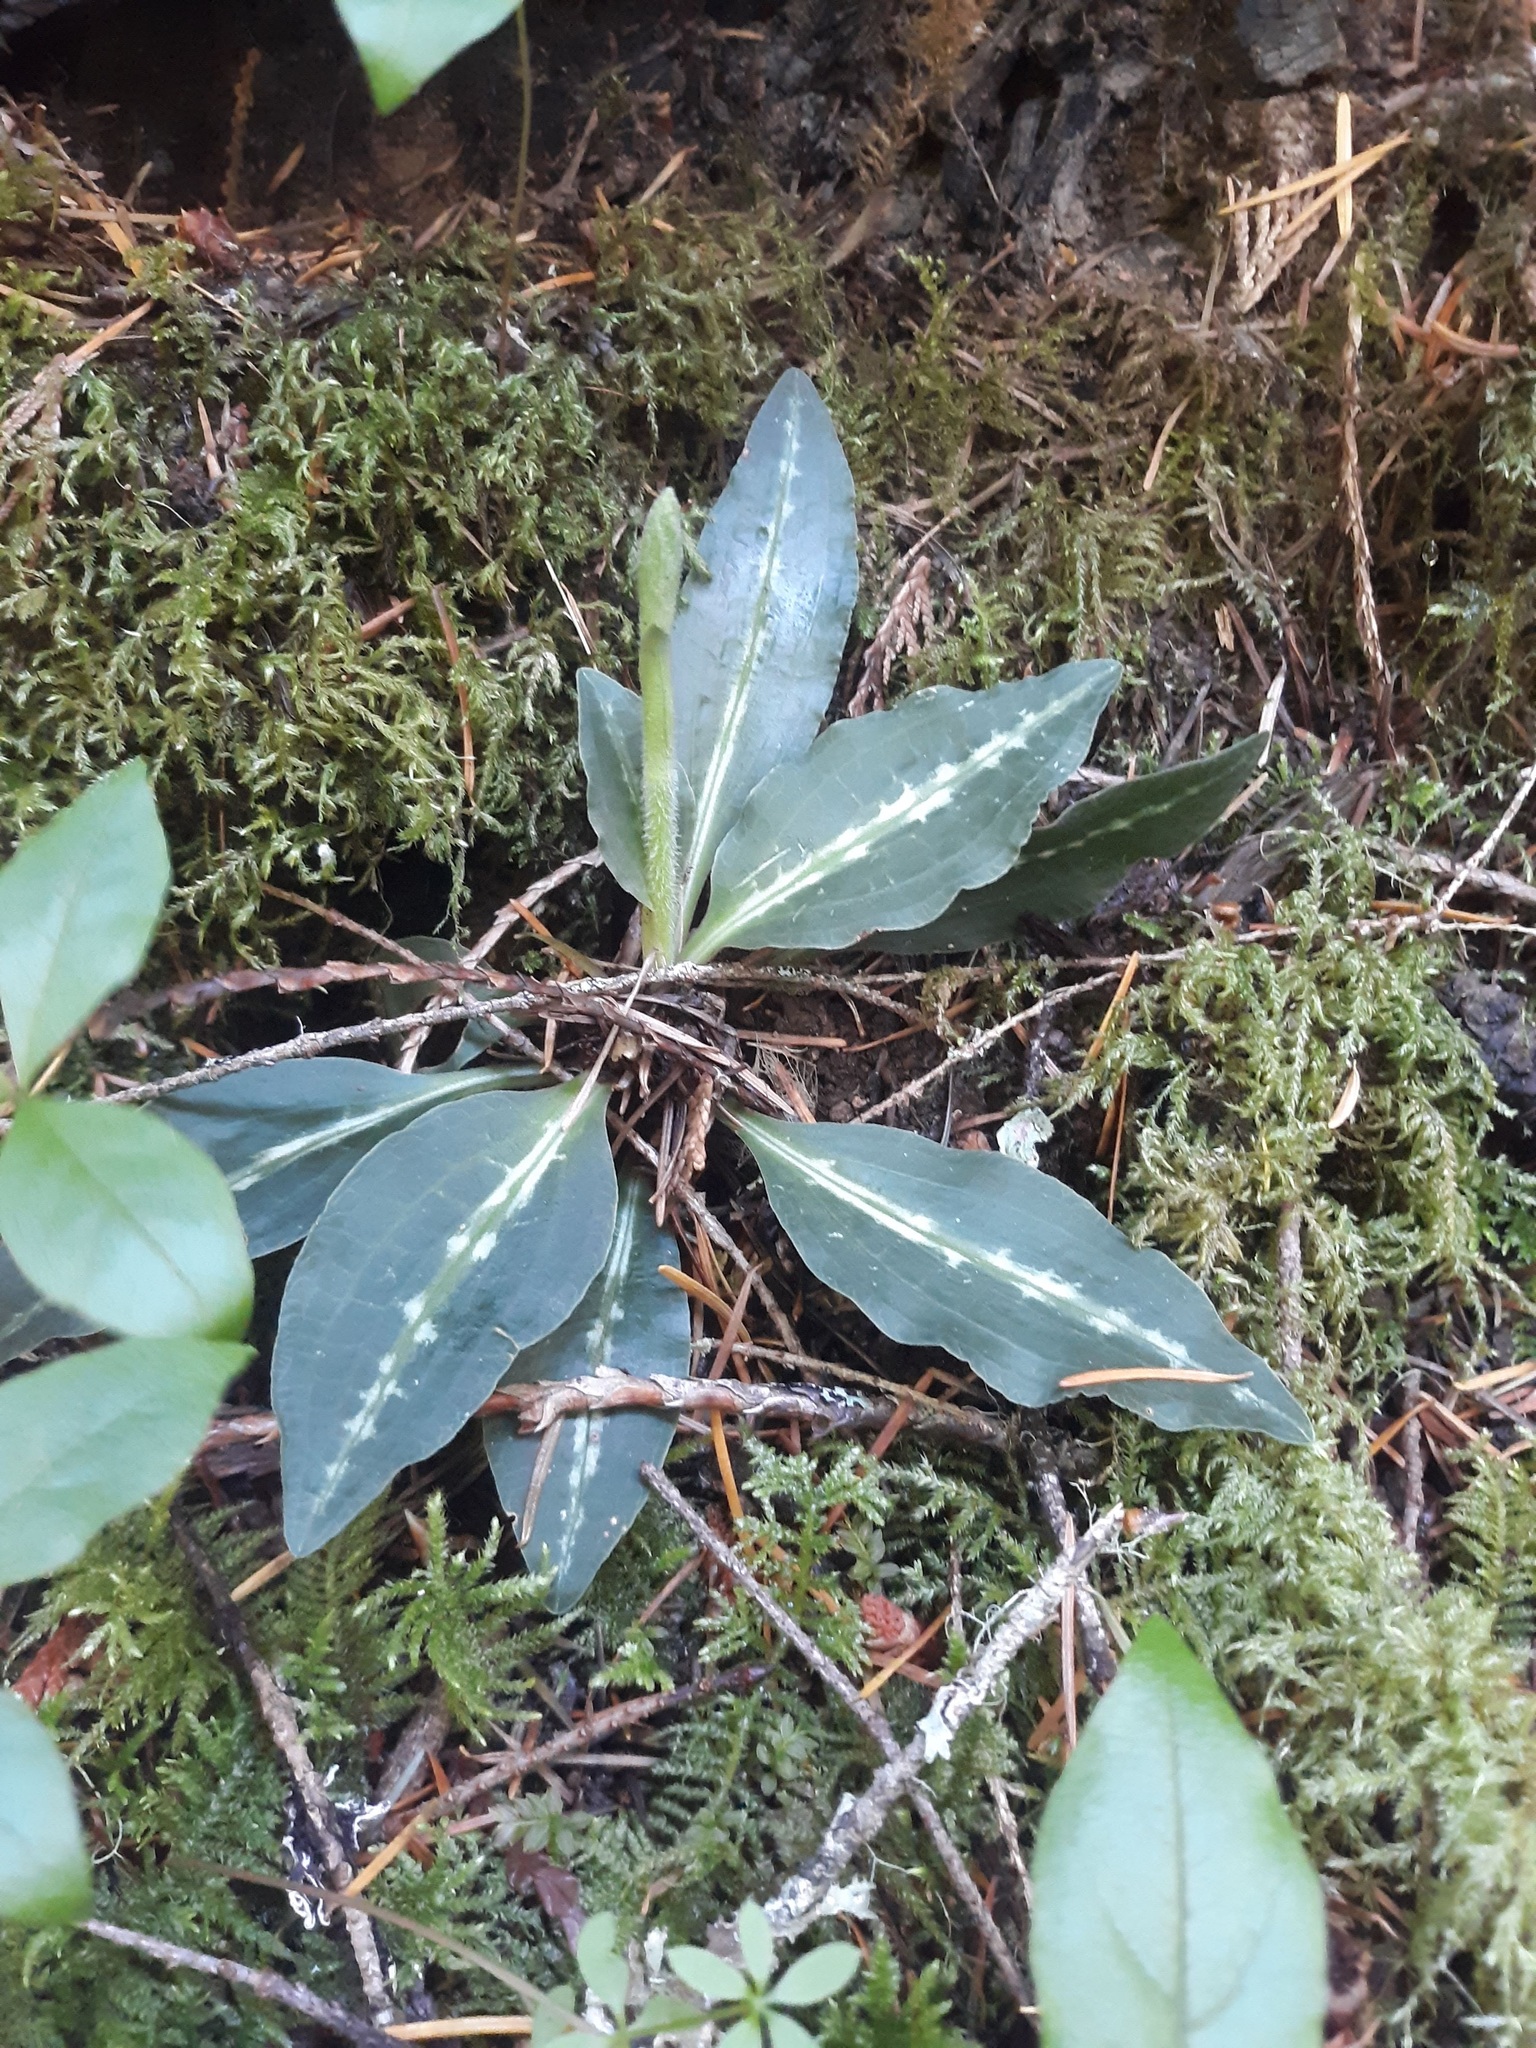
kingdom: Plantae
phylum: Tracheophyta
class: Liliopsida
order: Asparagales
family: Orchidaceae
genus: Goodyera
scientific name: Goodyera oblongifolia
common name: Giant rattlesnake-plantain
